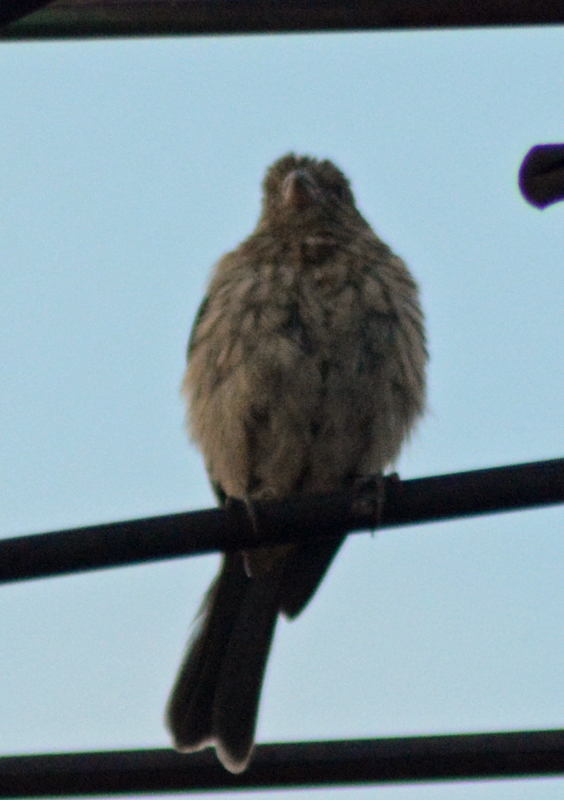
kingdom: Animalia
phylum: Chordata
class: Aves
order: Passeriformes
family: Fringillidae
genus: Haemorhous
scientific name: Haemorhous mexicanus
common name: House finch
